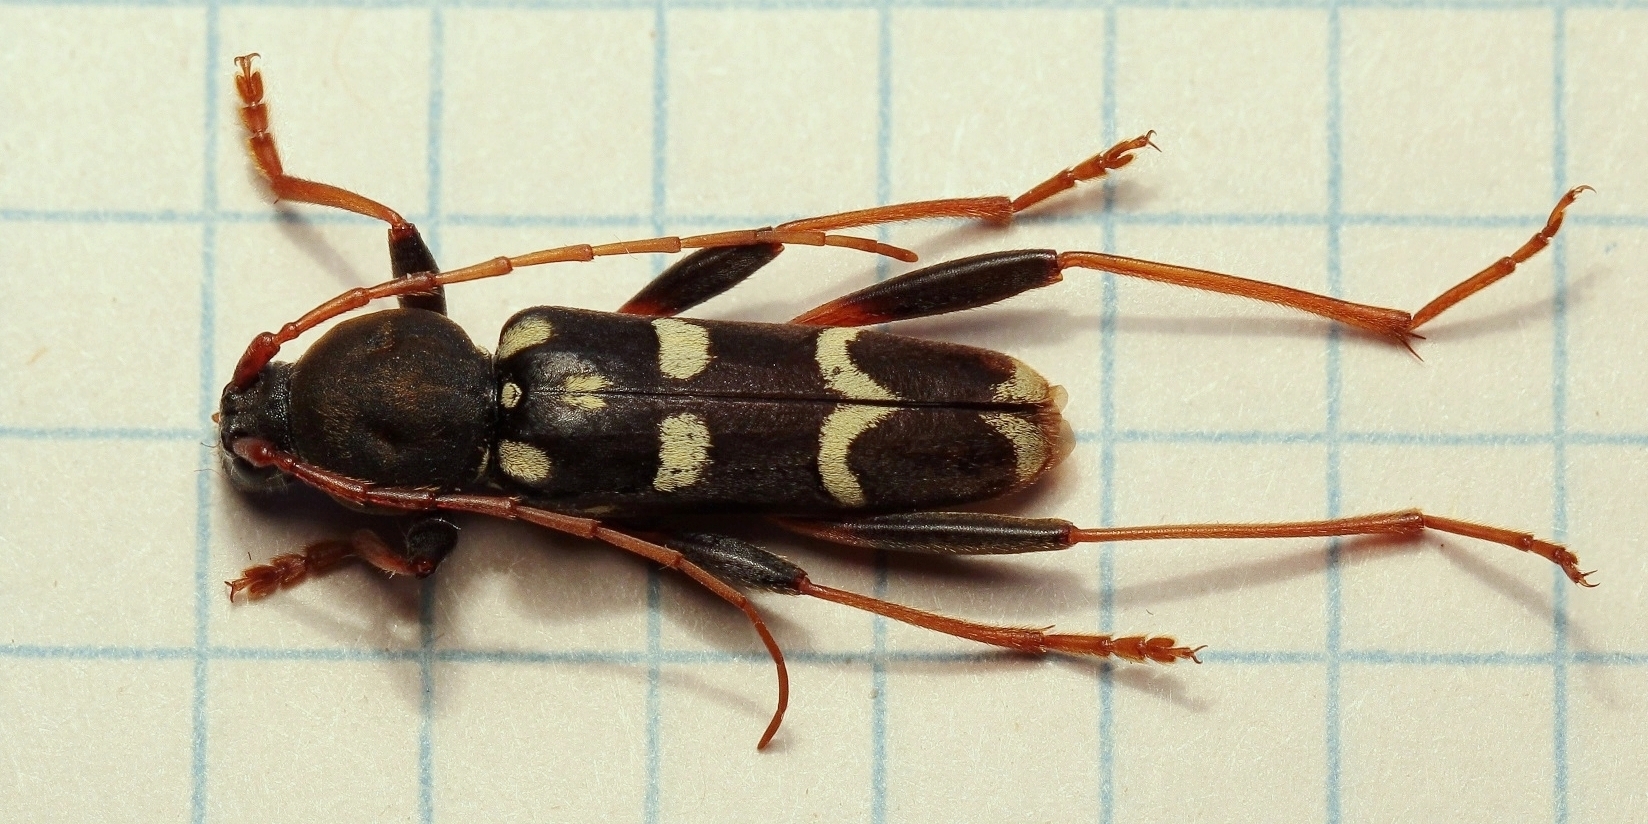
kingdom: Animalia
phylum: Arthropoda
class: Insecta
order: Coleoptera
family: Cerambycidae
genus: Isotomus
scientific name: Isotomus speciosus
